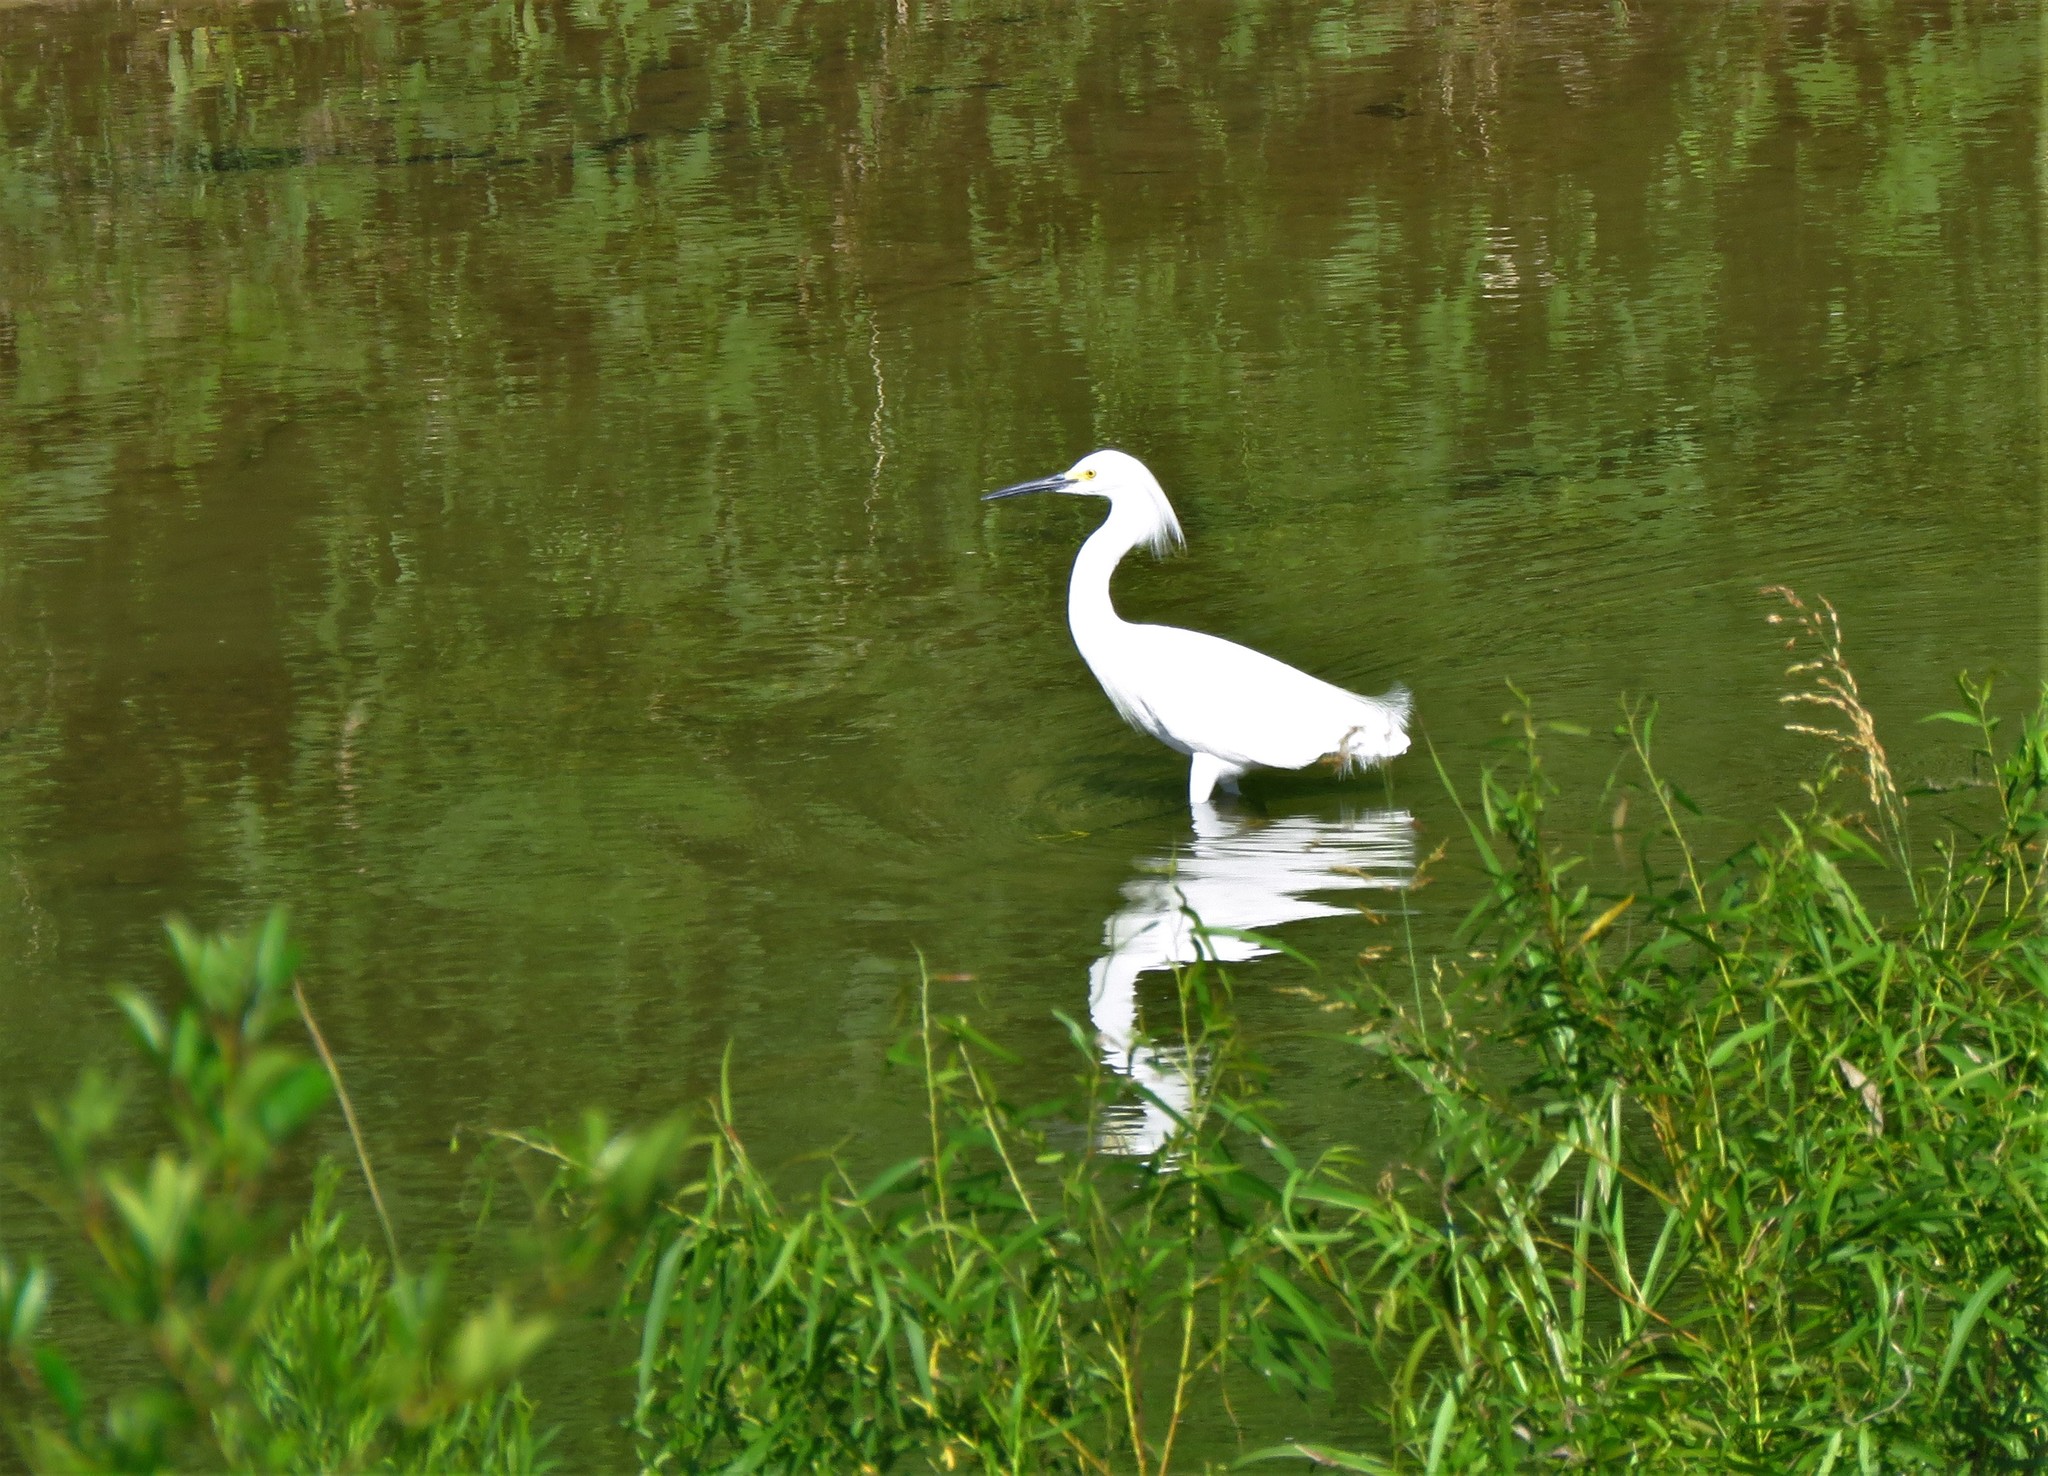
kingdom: Animalia
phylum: Chordata
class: Aves
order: Pelecaniformes
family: Ardeidae
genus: Egretta
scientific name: Egretta thula
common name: Snowy egret
